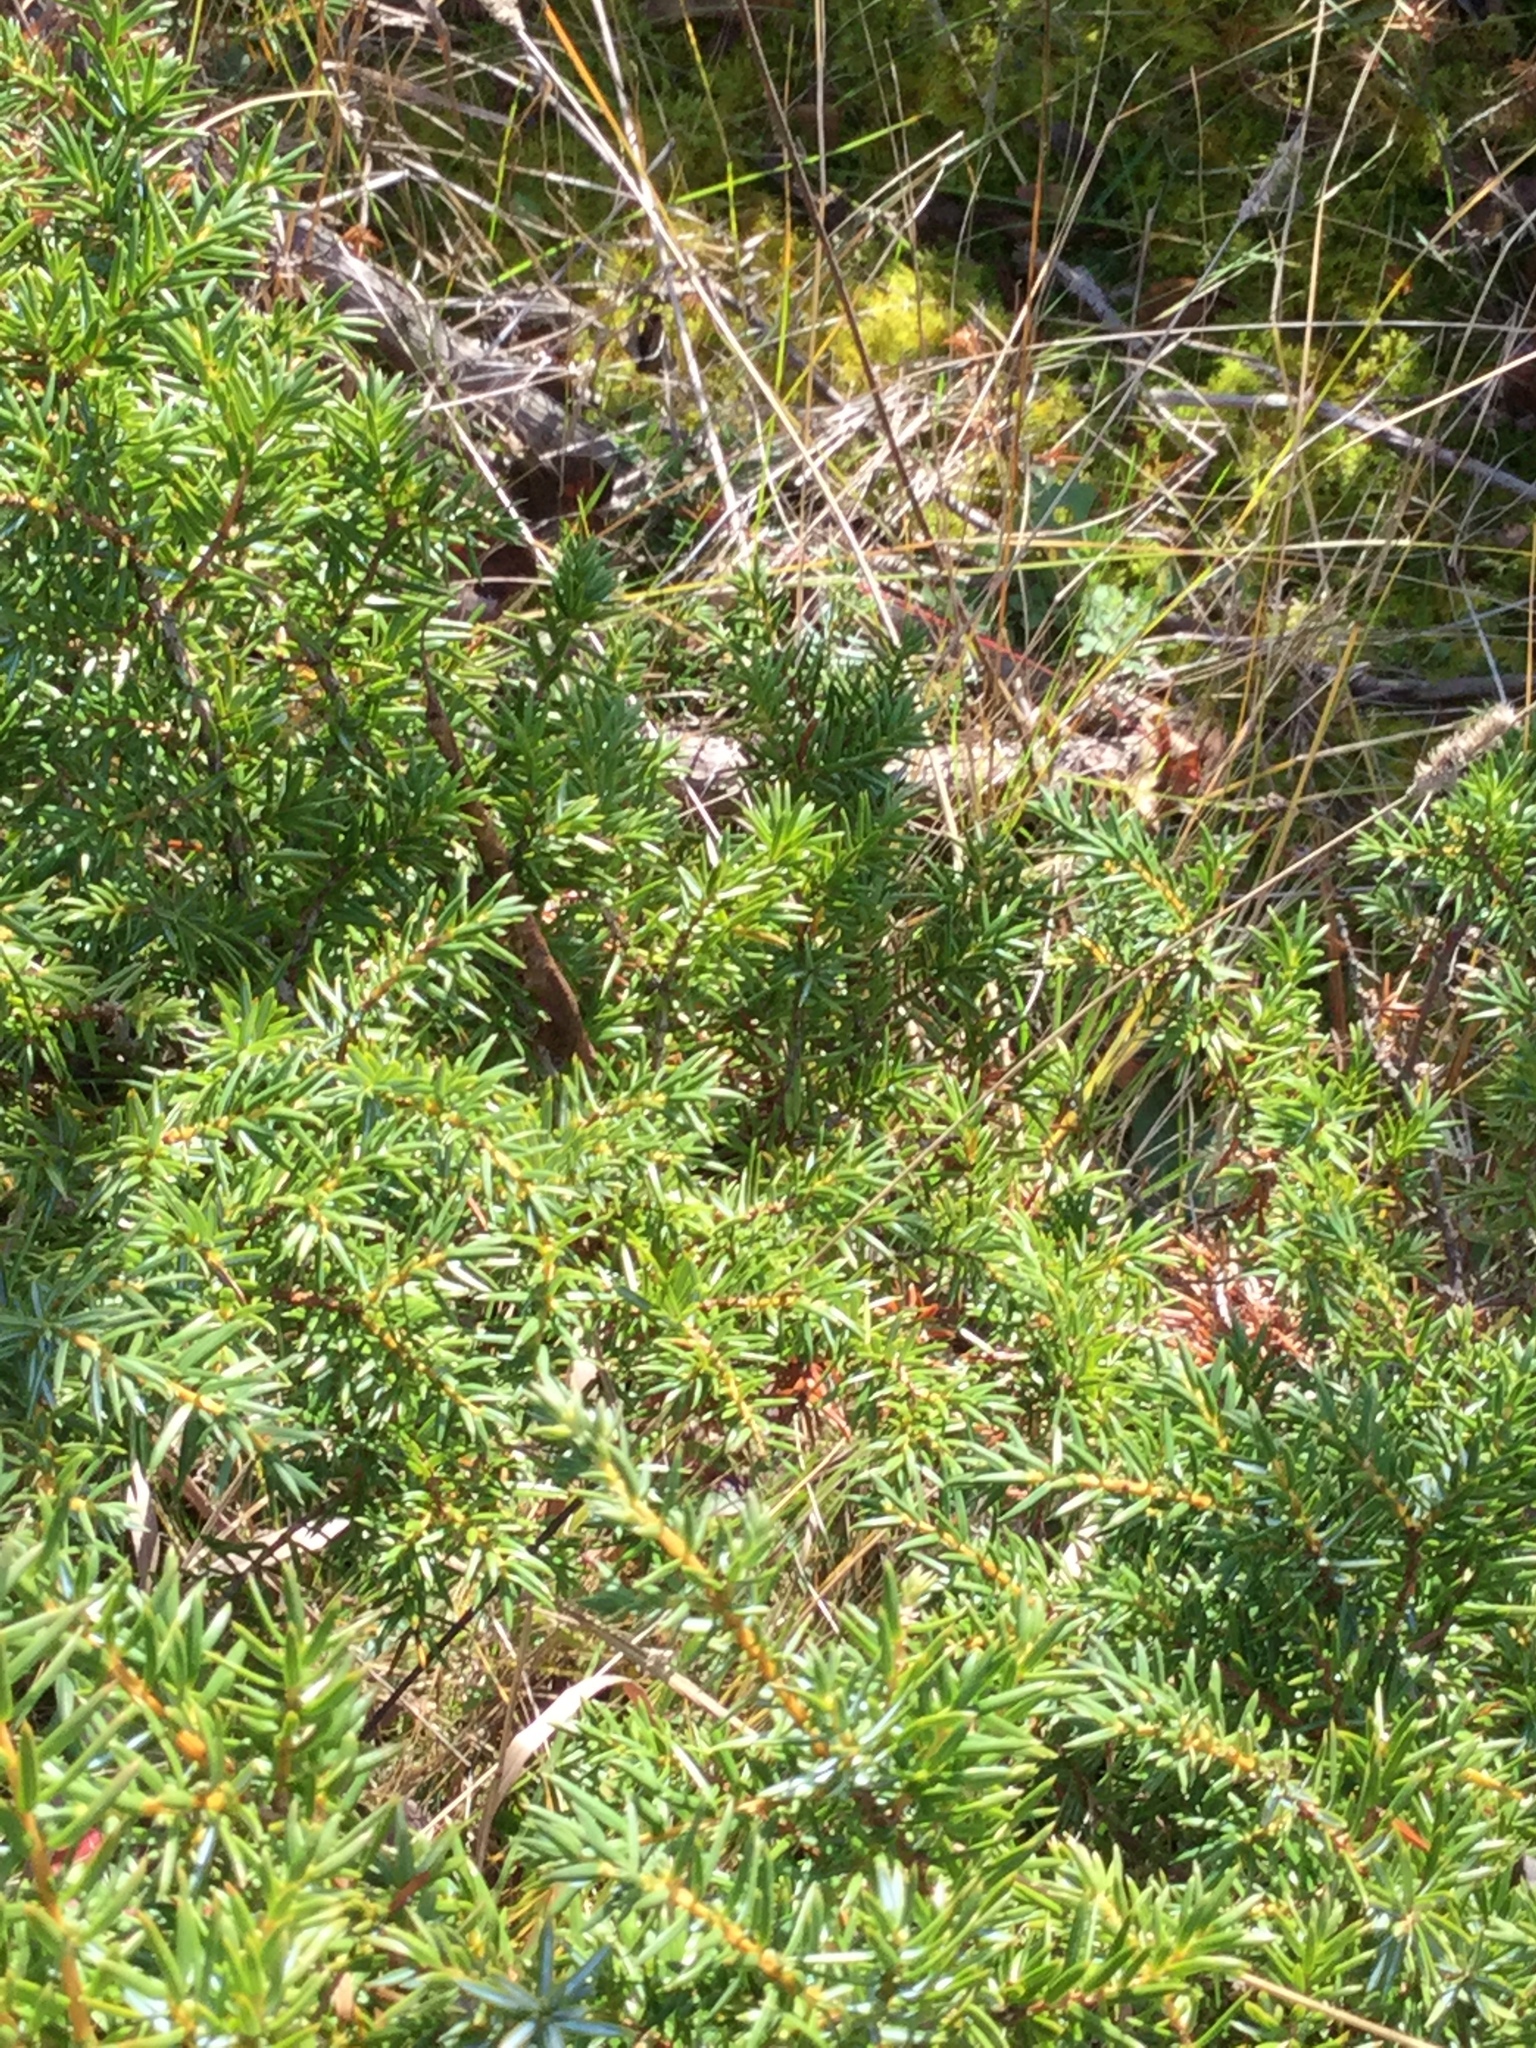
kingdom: Plantae
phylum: Tracheophyta
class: Pinopsida
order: Pinales
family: Cupressaceae
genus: Juniperus
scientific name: Juniperus communis
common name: Common juniper
